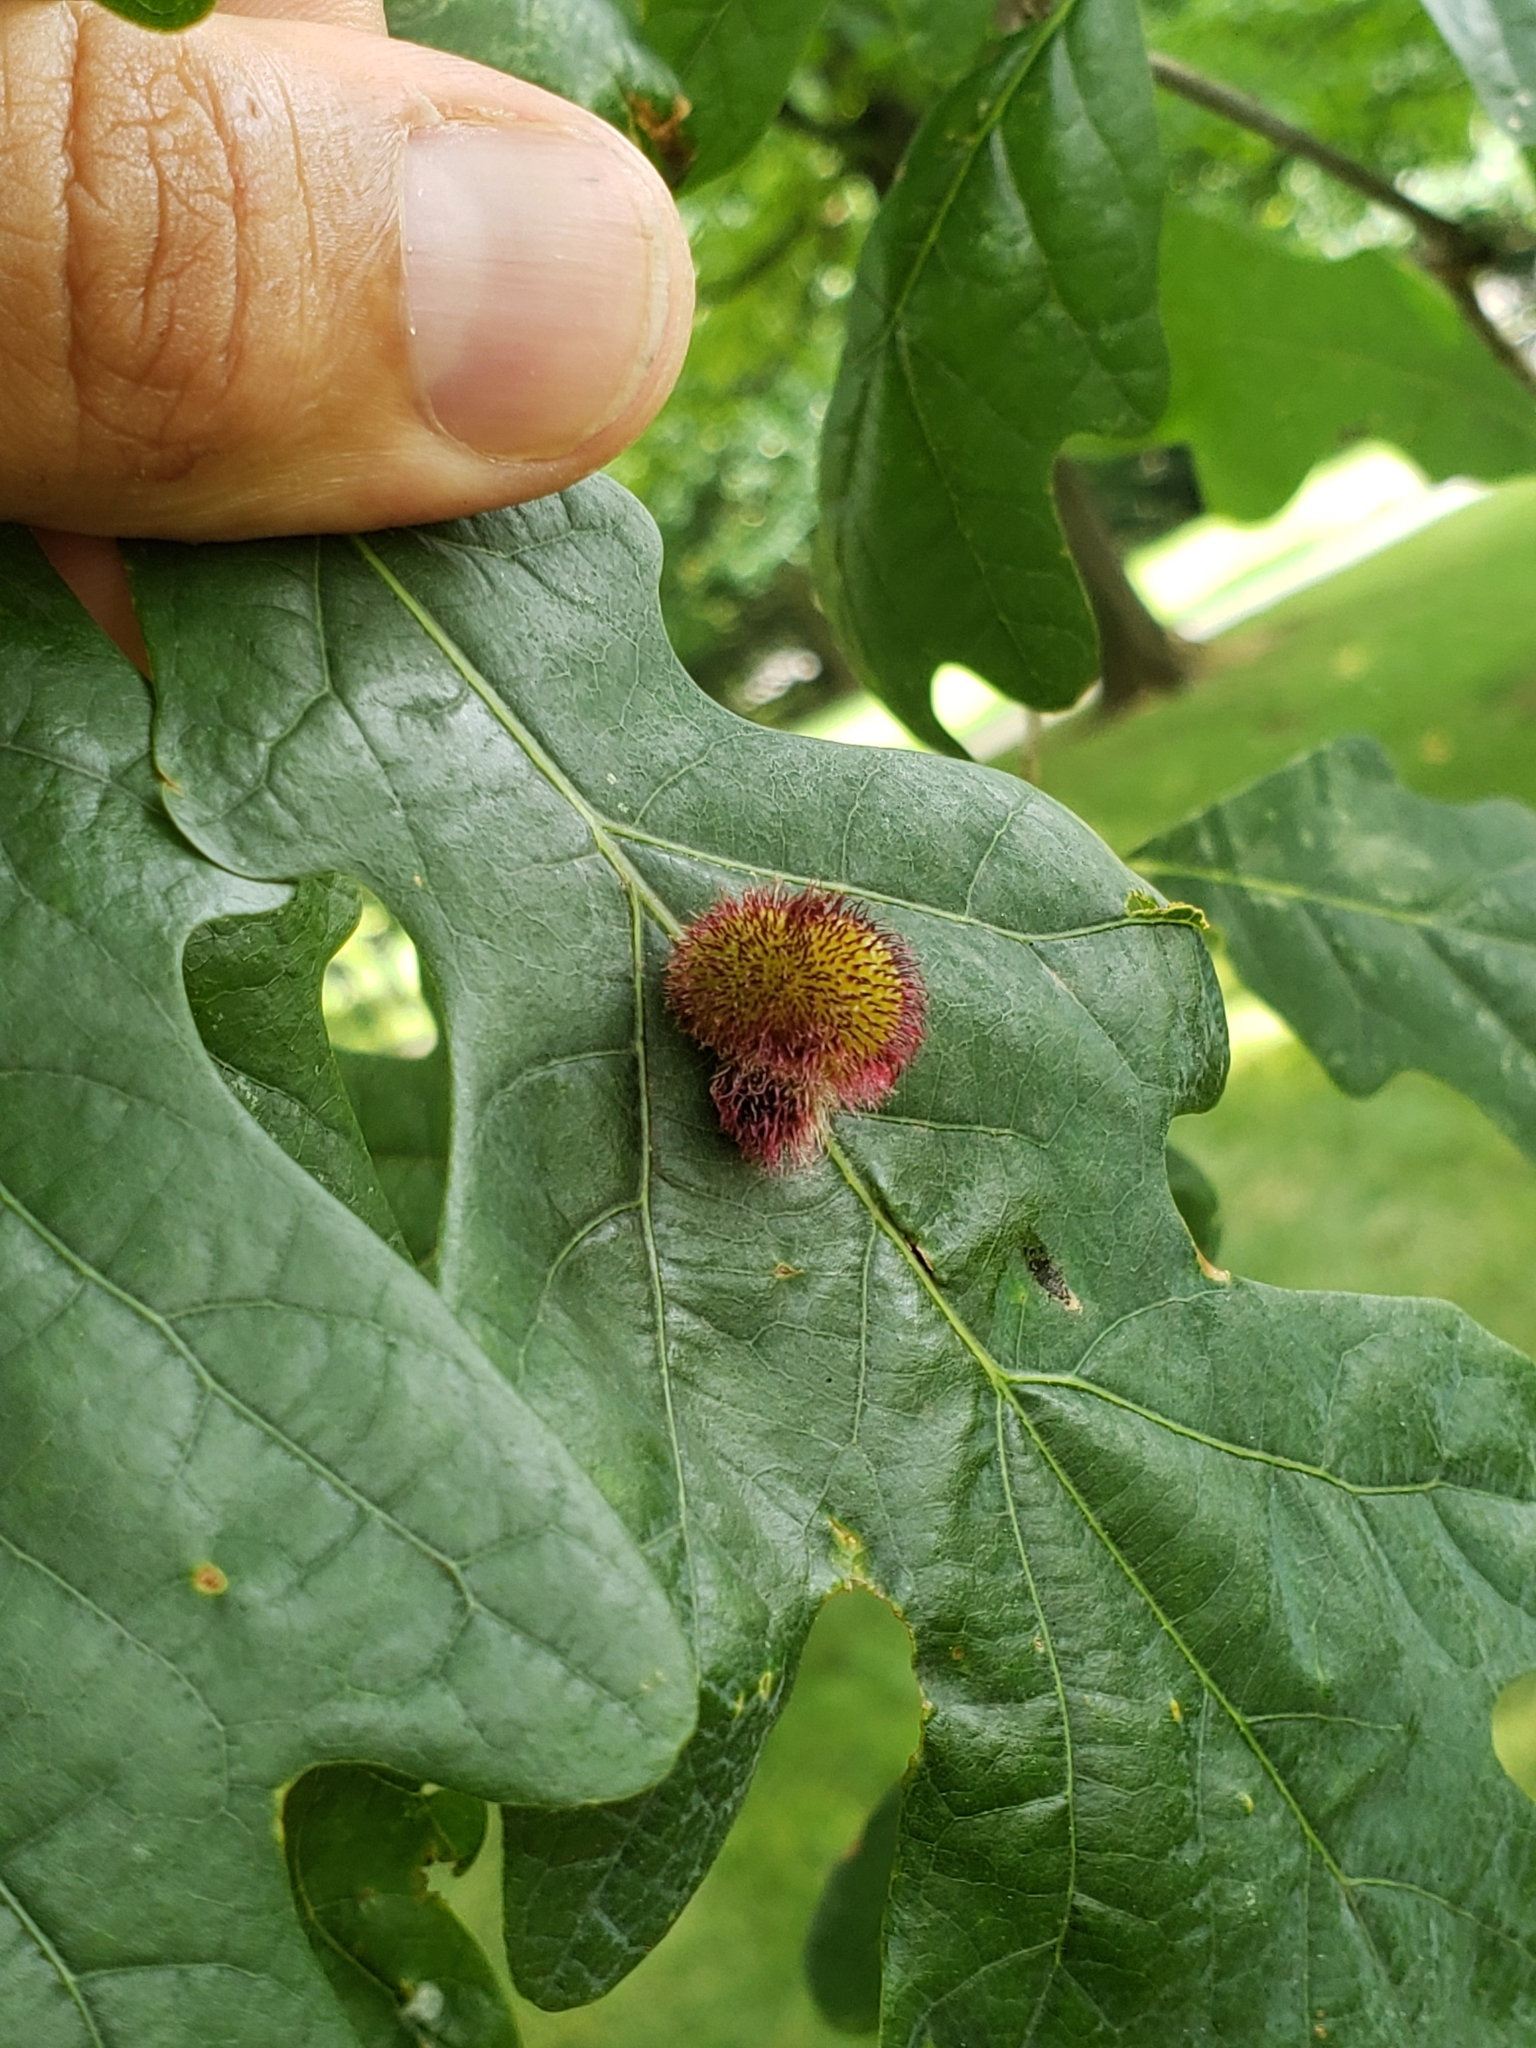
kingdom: Animalia
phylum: Arthropoda
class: Insecta
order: Hymenoptera
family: Cynipidae
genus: Acraspis
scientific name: Acraspis erinacei
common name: Hedgehog gall wasp
